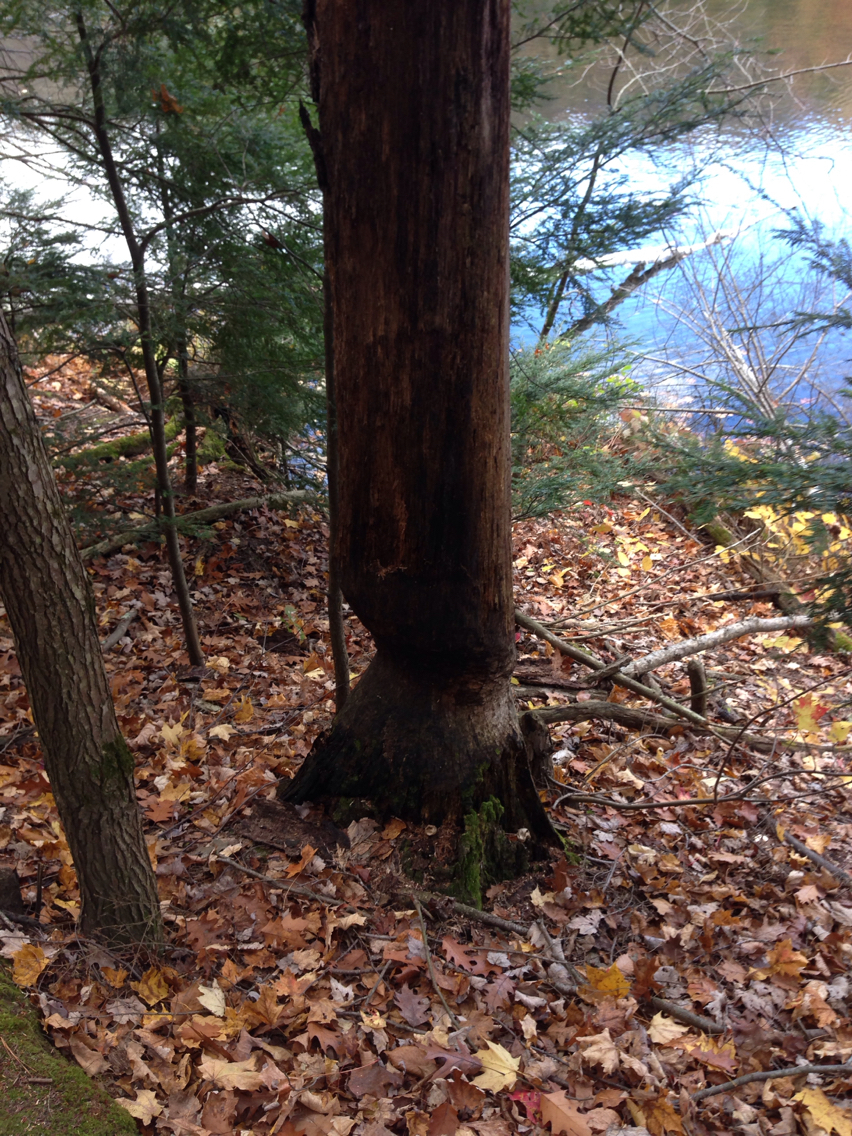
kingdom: Animalia
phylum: Chordata
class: Mammalia
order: Rodentia
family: Castoridae
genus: Castor
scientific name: Castor canadensis
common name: American beaver
